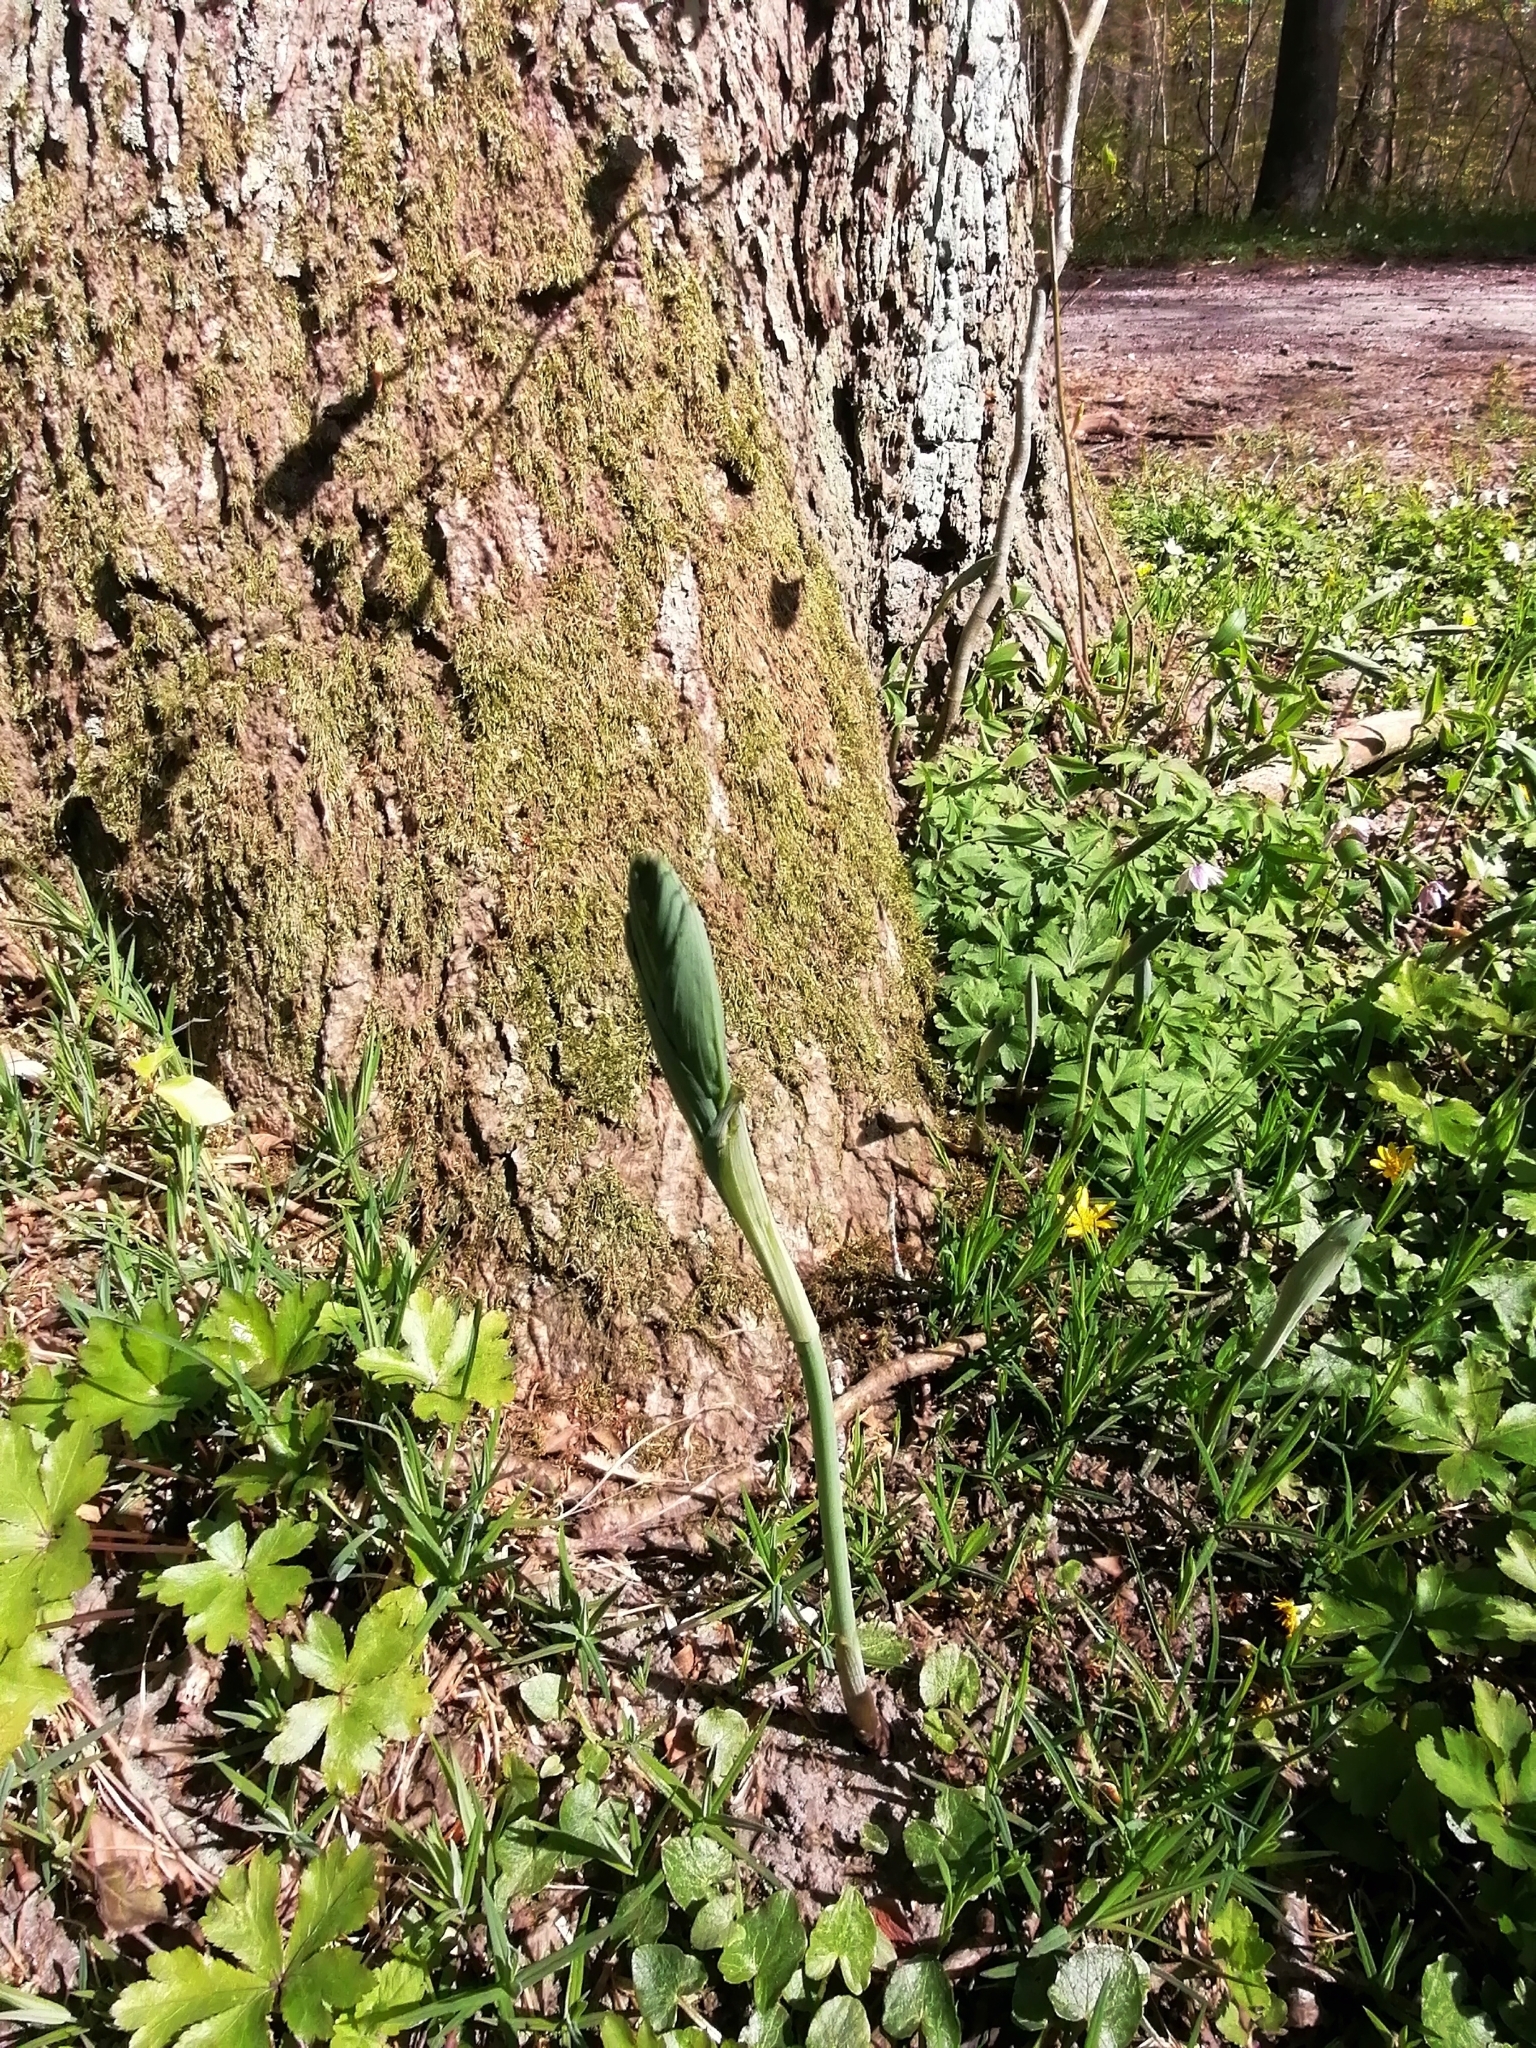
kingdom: Plantae
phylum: Tracheophyta
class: Liliopsida
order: Asparagales
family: Asparagaceae
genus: Polygonatum
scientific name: Polygonatum multiflorum
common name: Solomon's-seal
